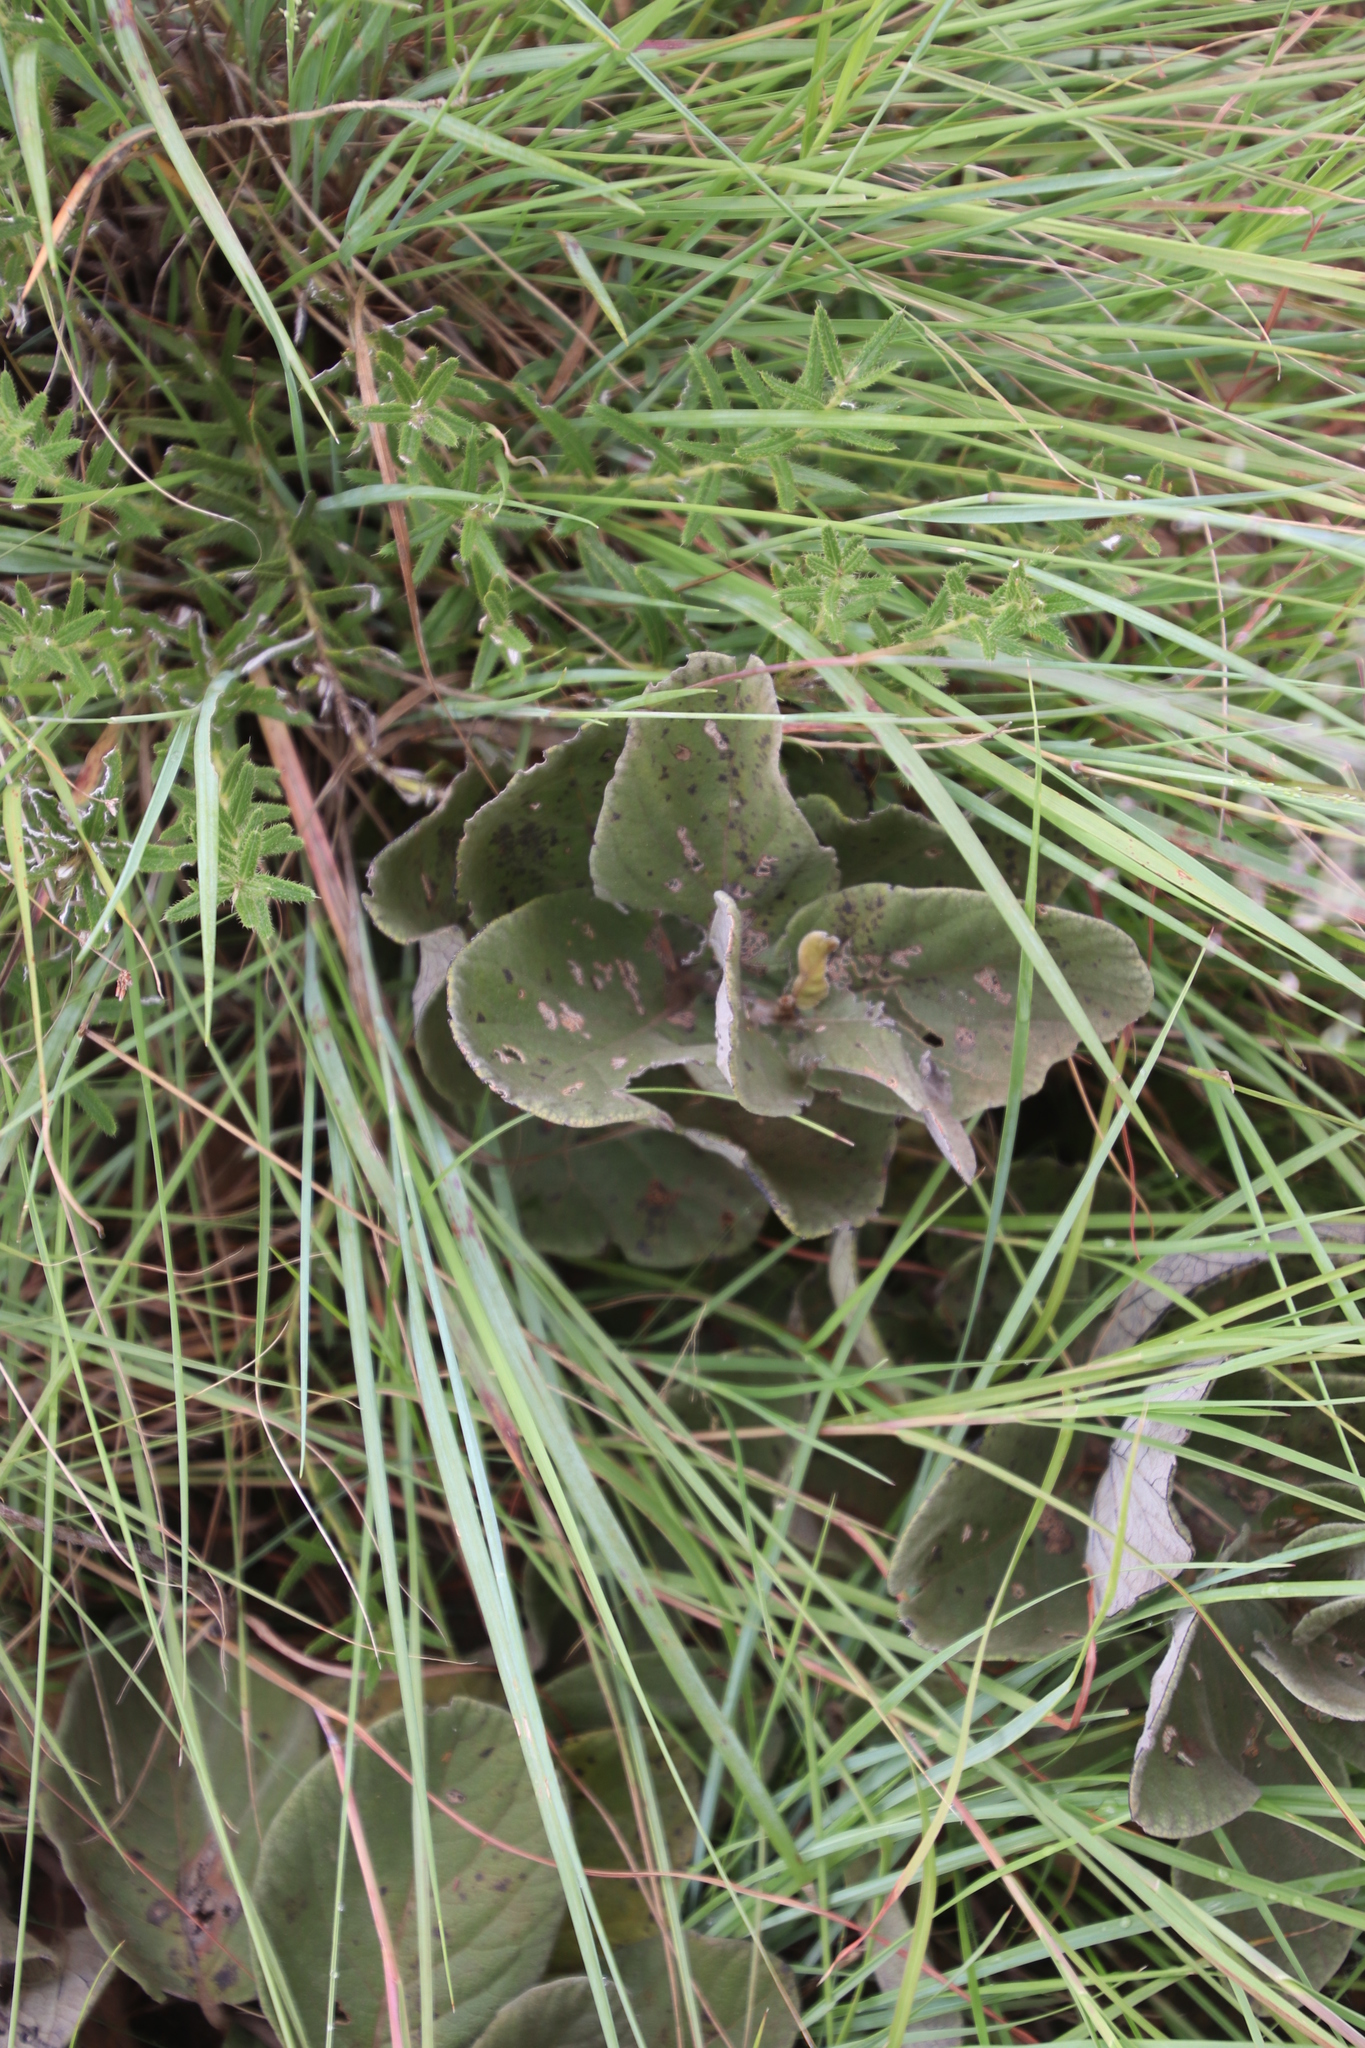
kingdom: Plantae
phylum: Tracheophyta
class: Magnoliopsida
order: Ericales
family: Ebenaceae
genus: Diospyros
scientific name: Diospyros galpinii
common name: Dwarf hairy star-apple
